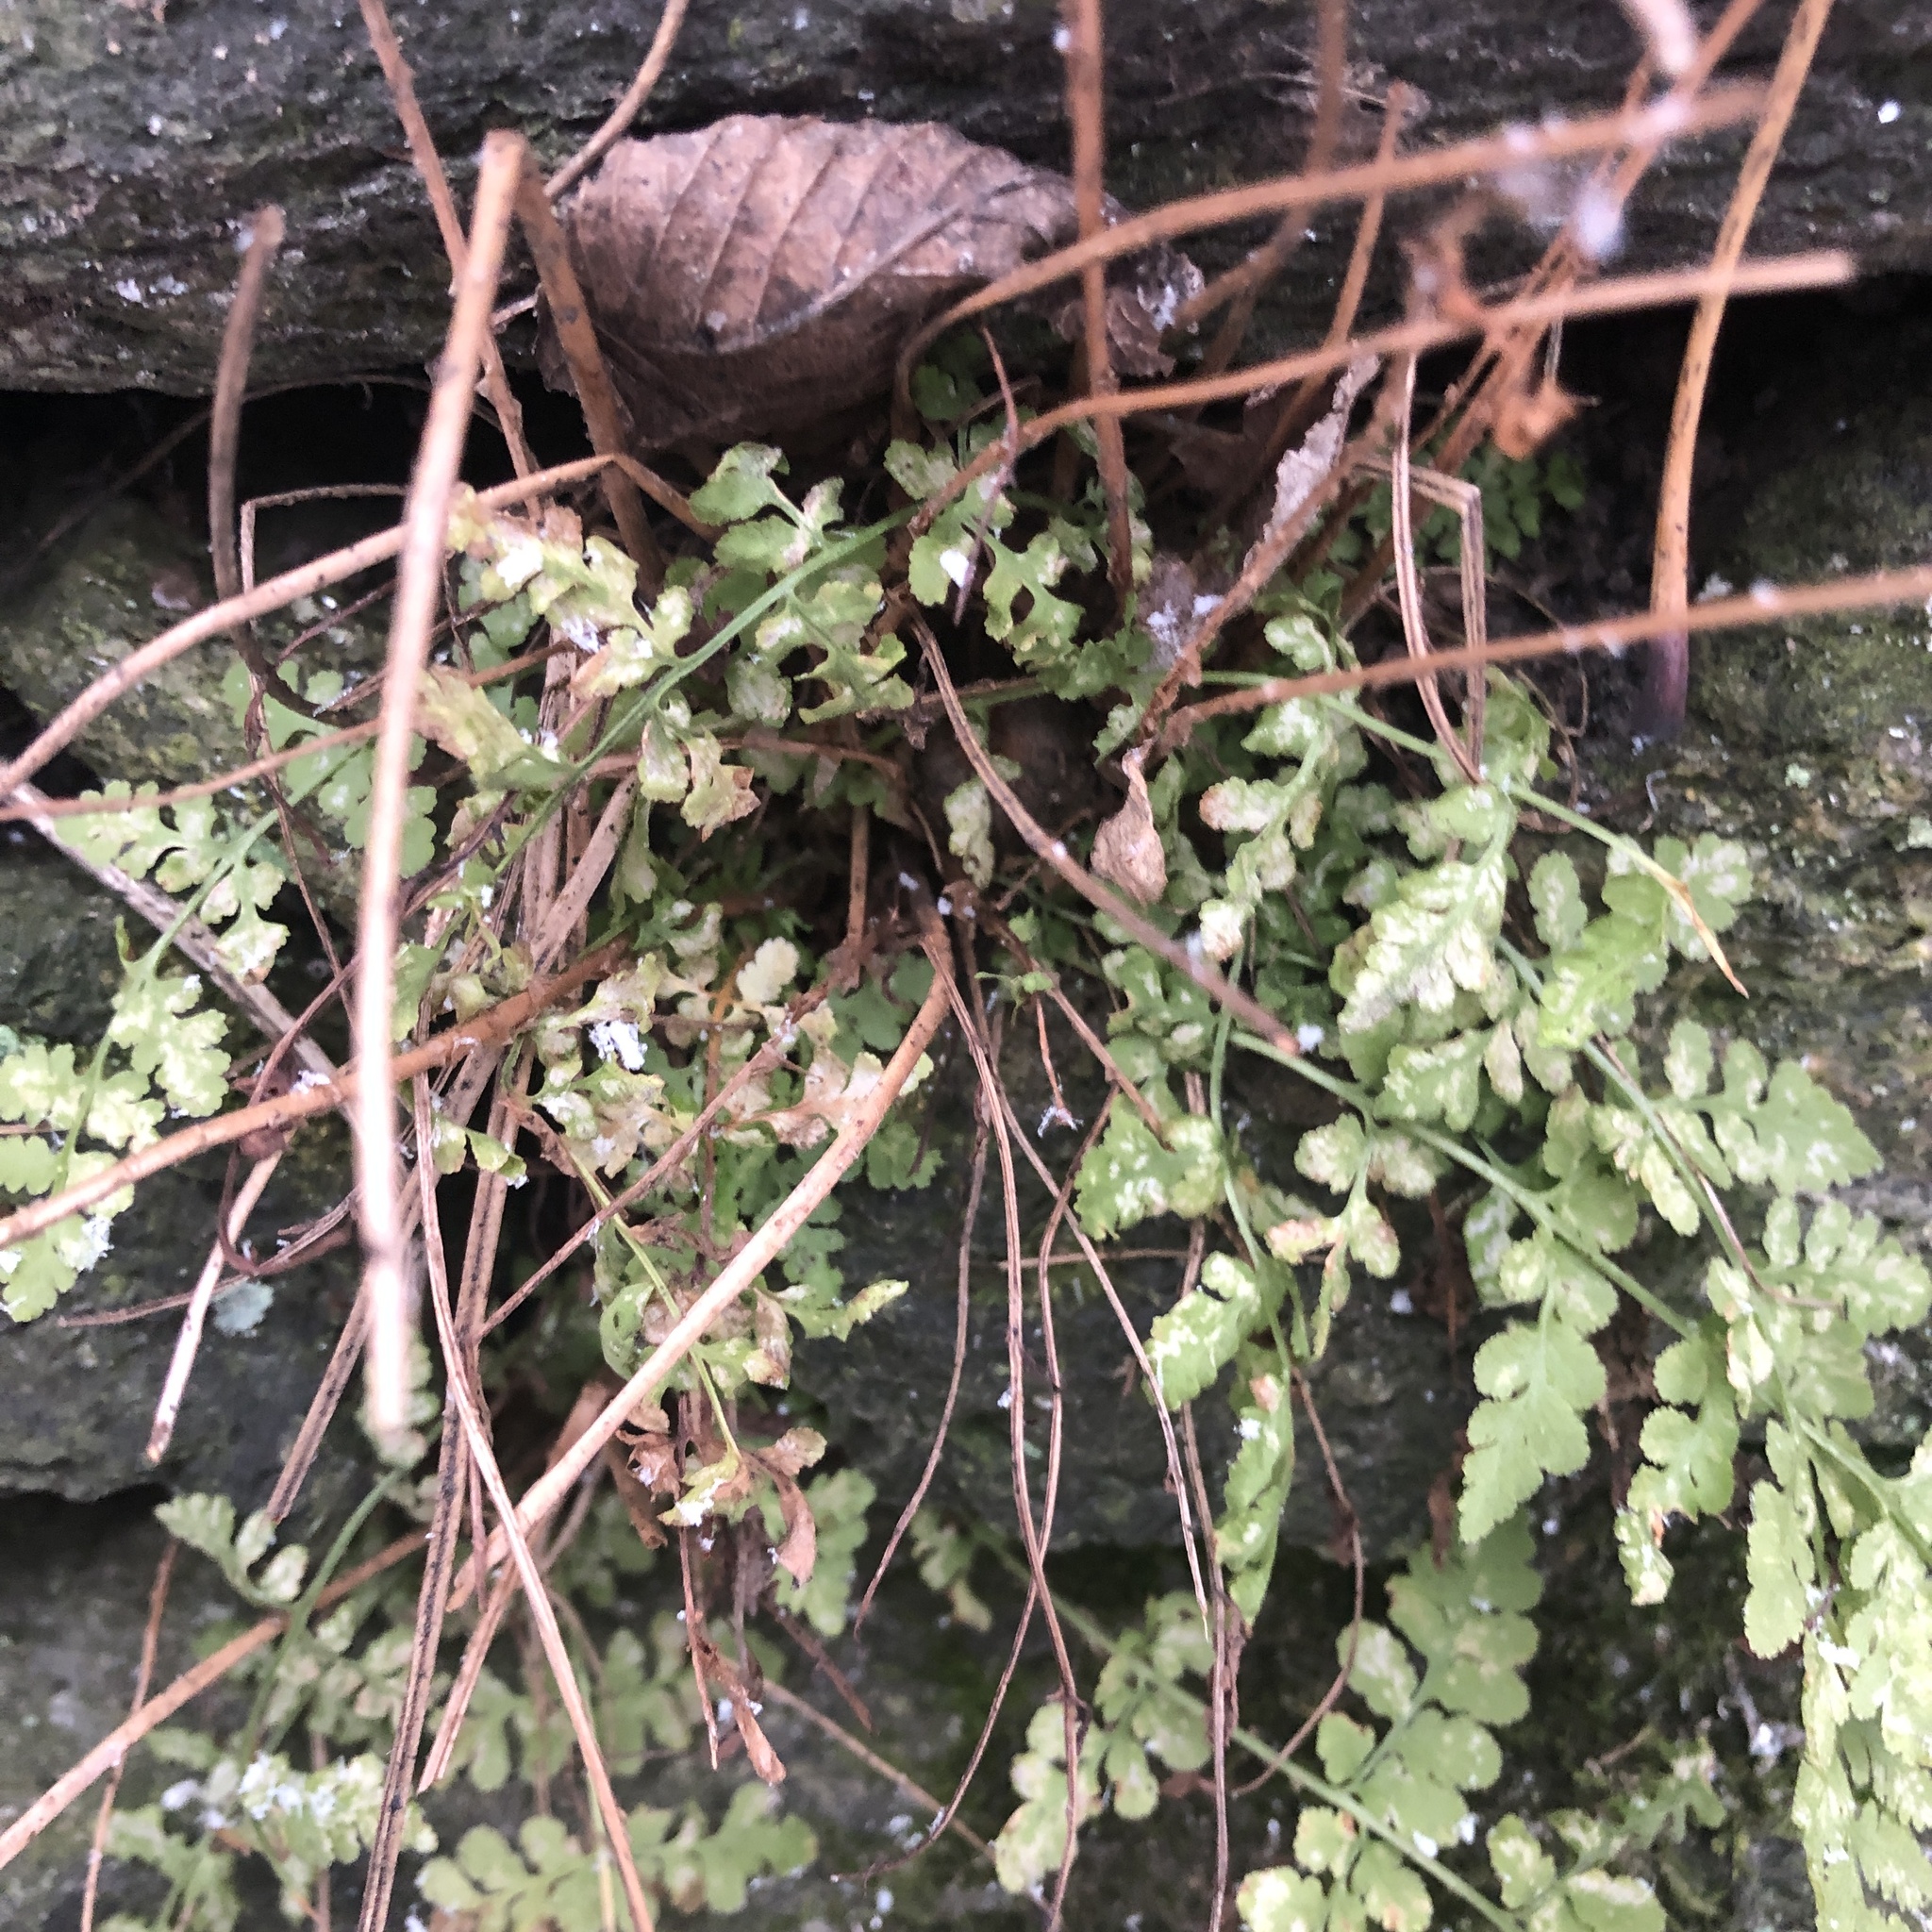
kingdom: Plantae
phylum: Tracheophyta
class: Polypodiopsida
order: Polypodiales
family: Woodsiaceae
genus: Physematium
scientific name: Physematium obtusum
